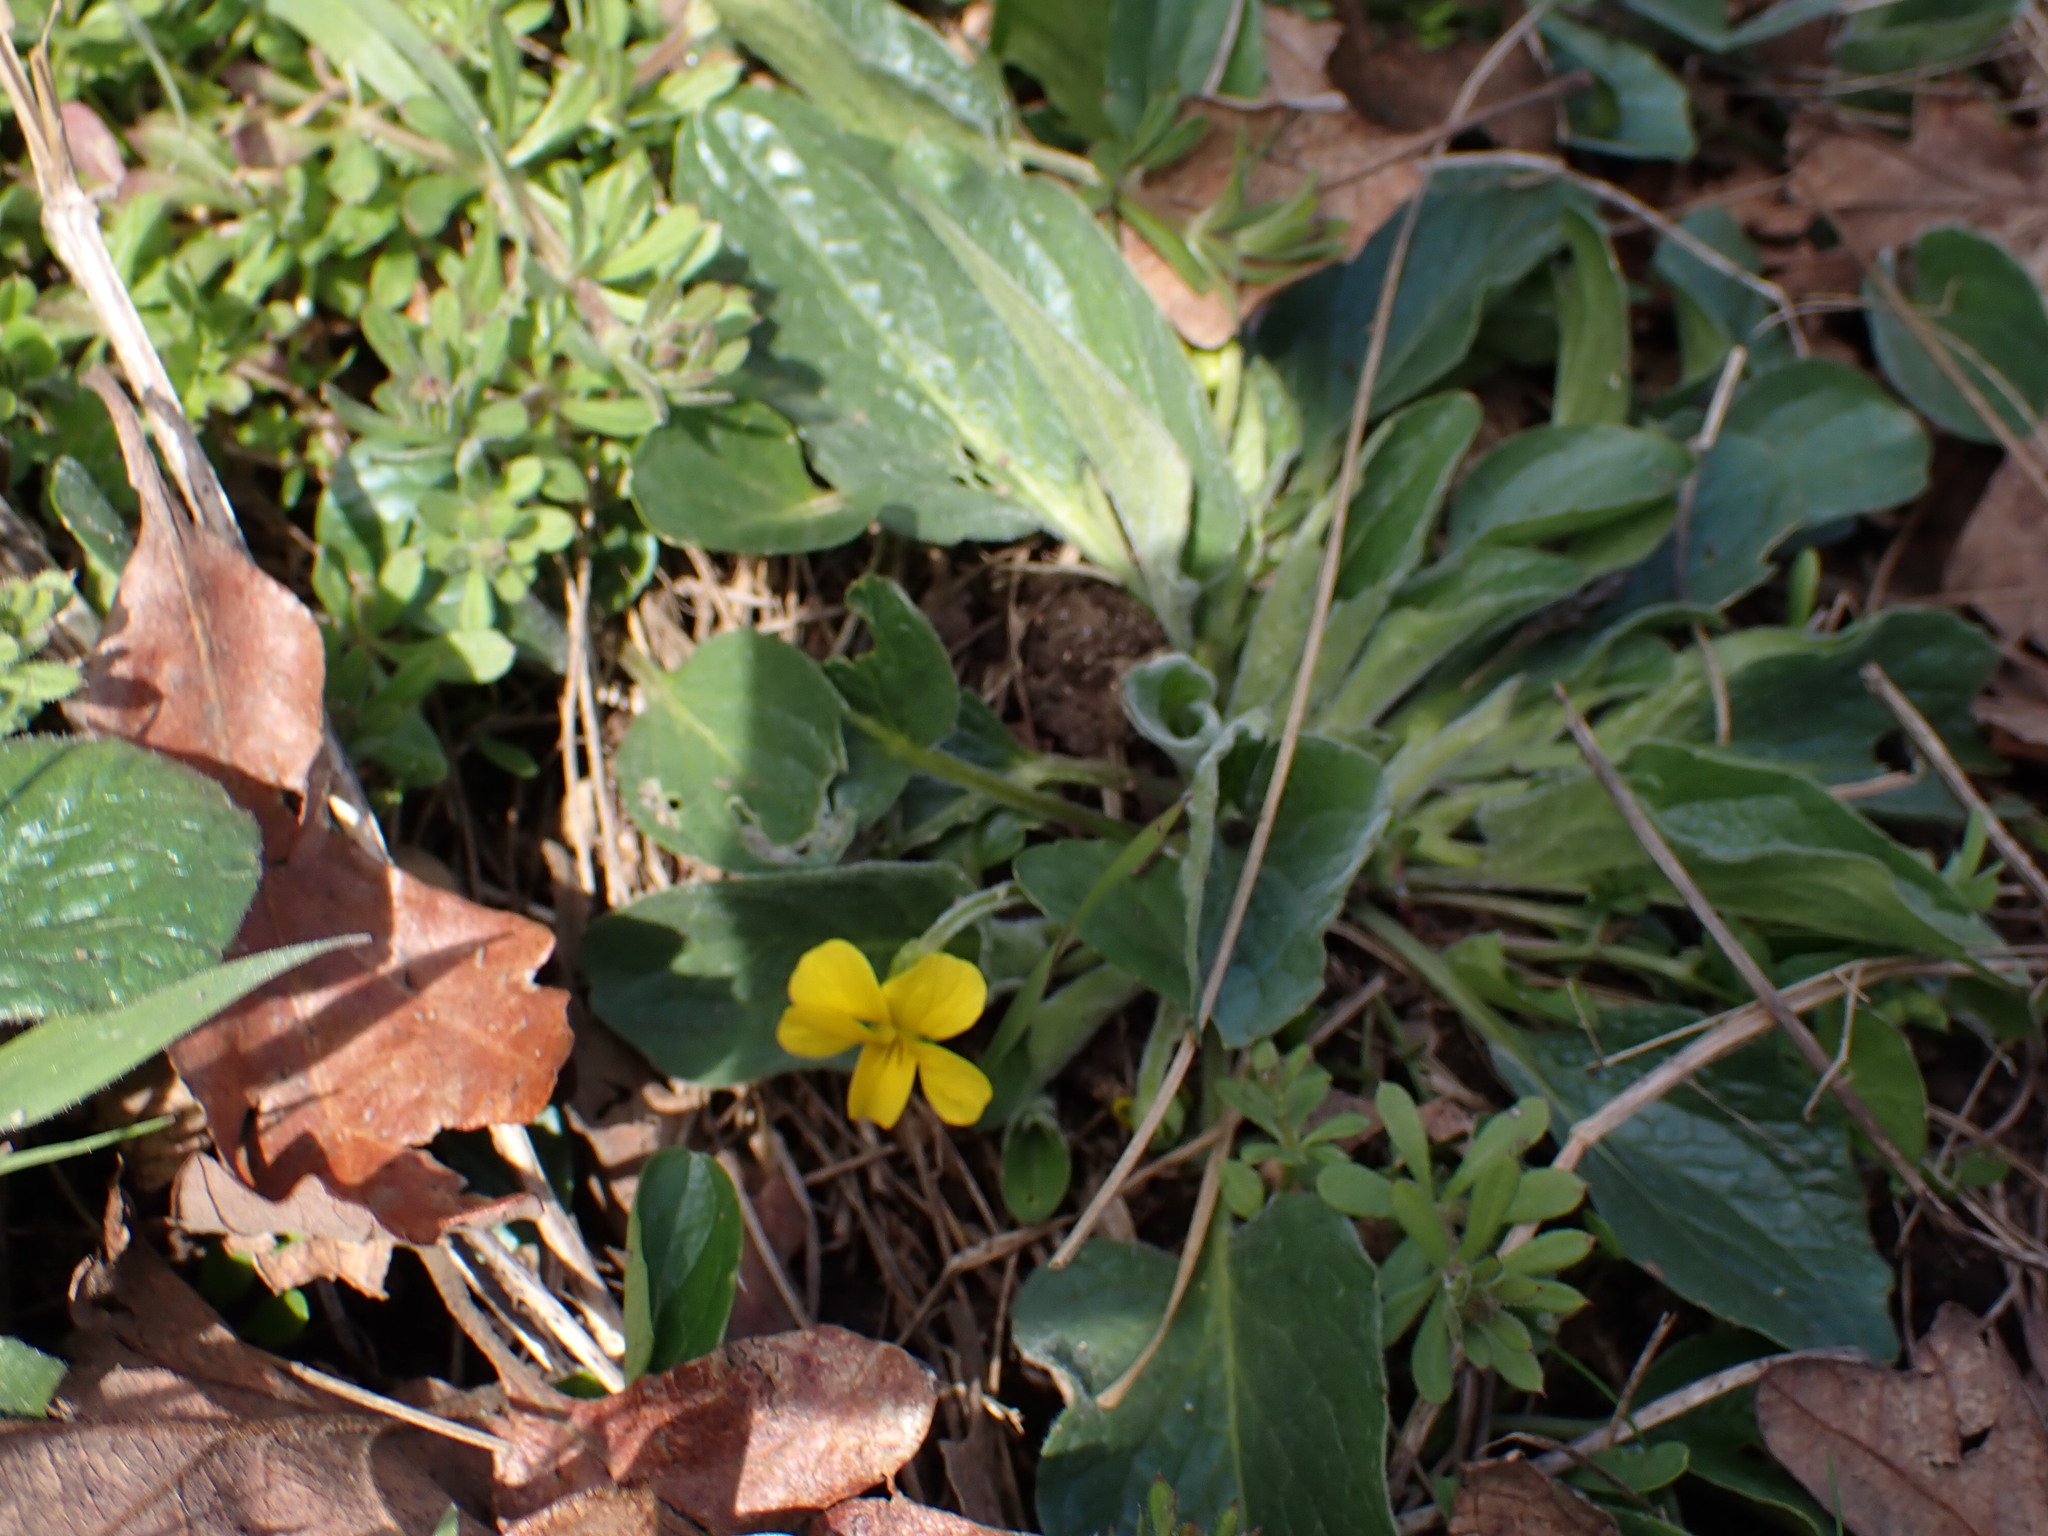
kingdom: Plantae
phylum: Tracheophyta
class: Magnoliopsida
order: Malpighiales
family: Violaceae
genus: Viola
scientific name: Viola praemorsa
